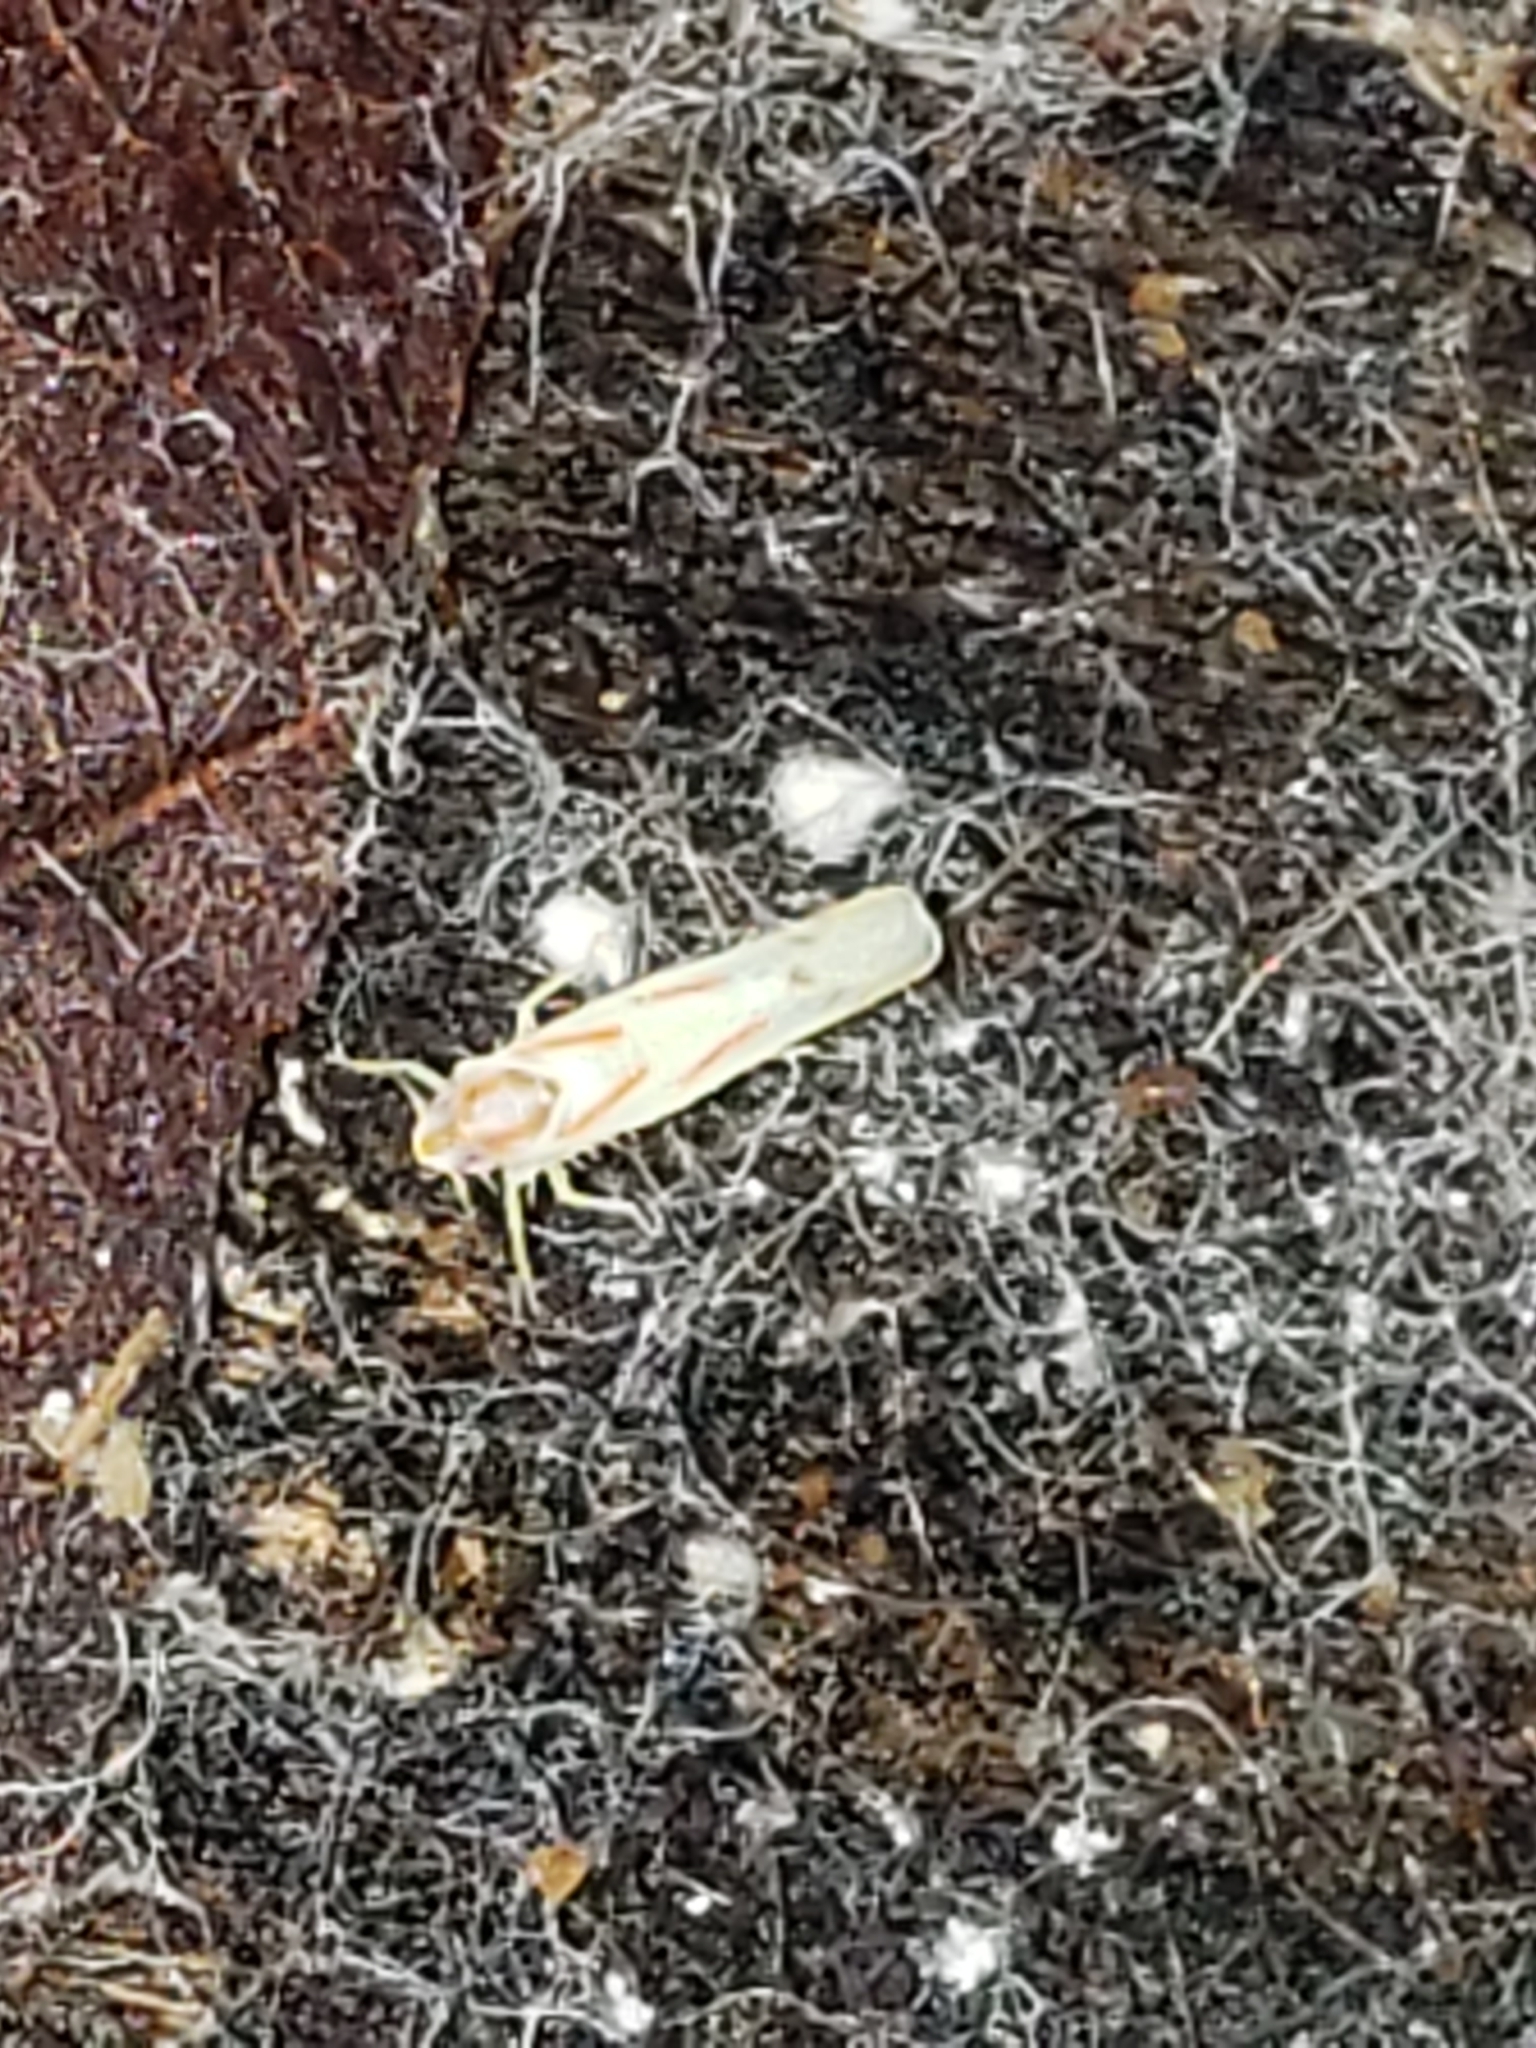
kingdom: Animalia
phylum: Arthropoda
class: Insecta
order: Hemiptera
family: Cicadellidae
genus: Dikrella
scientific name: Dikrella cruentata
